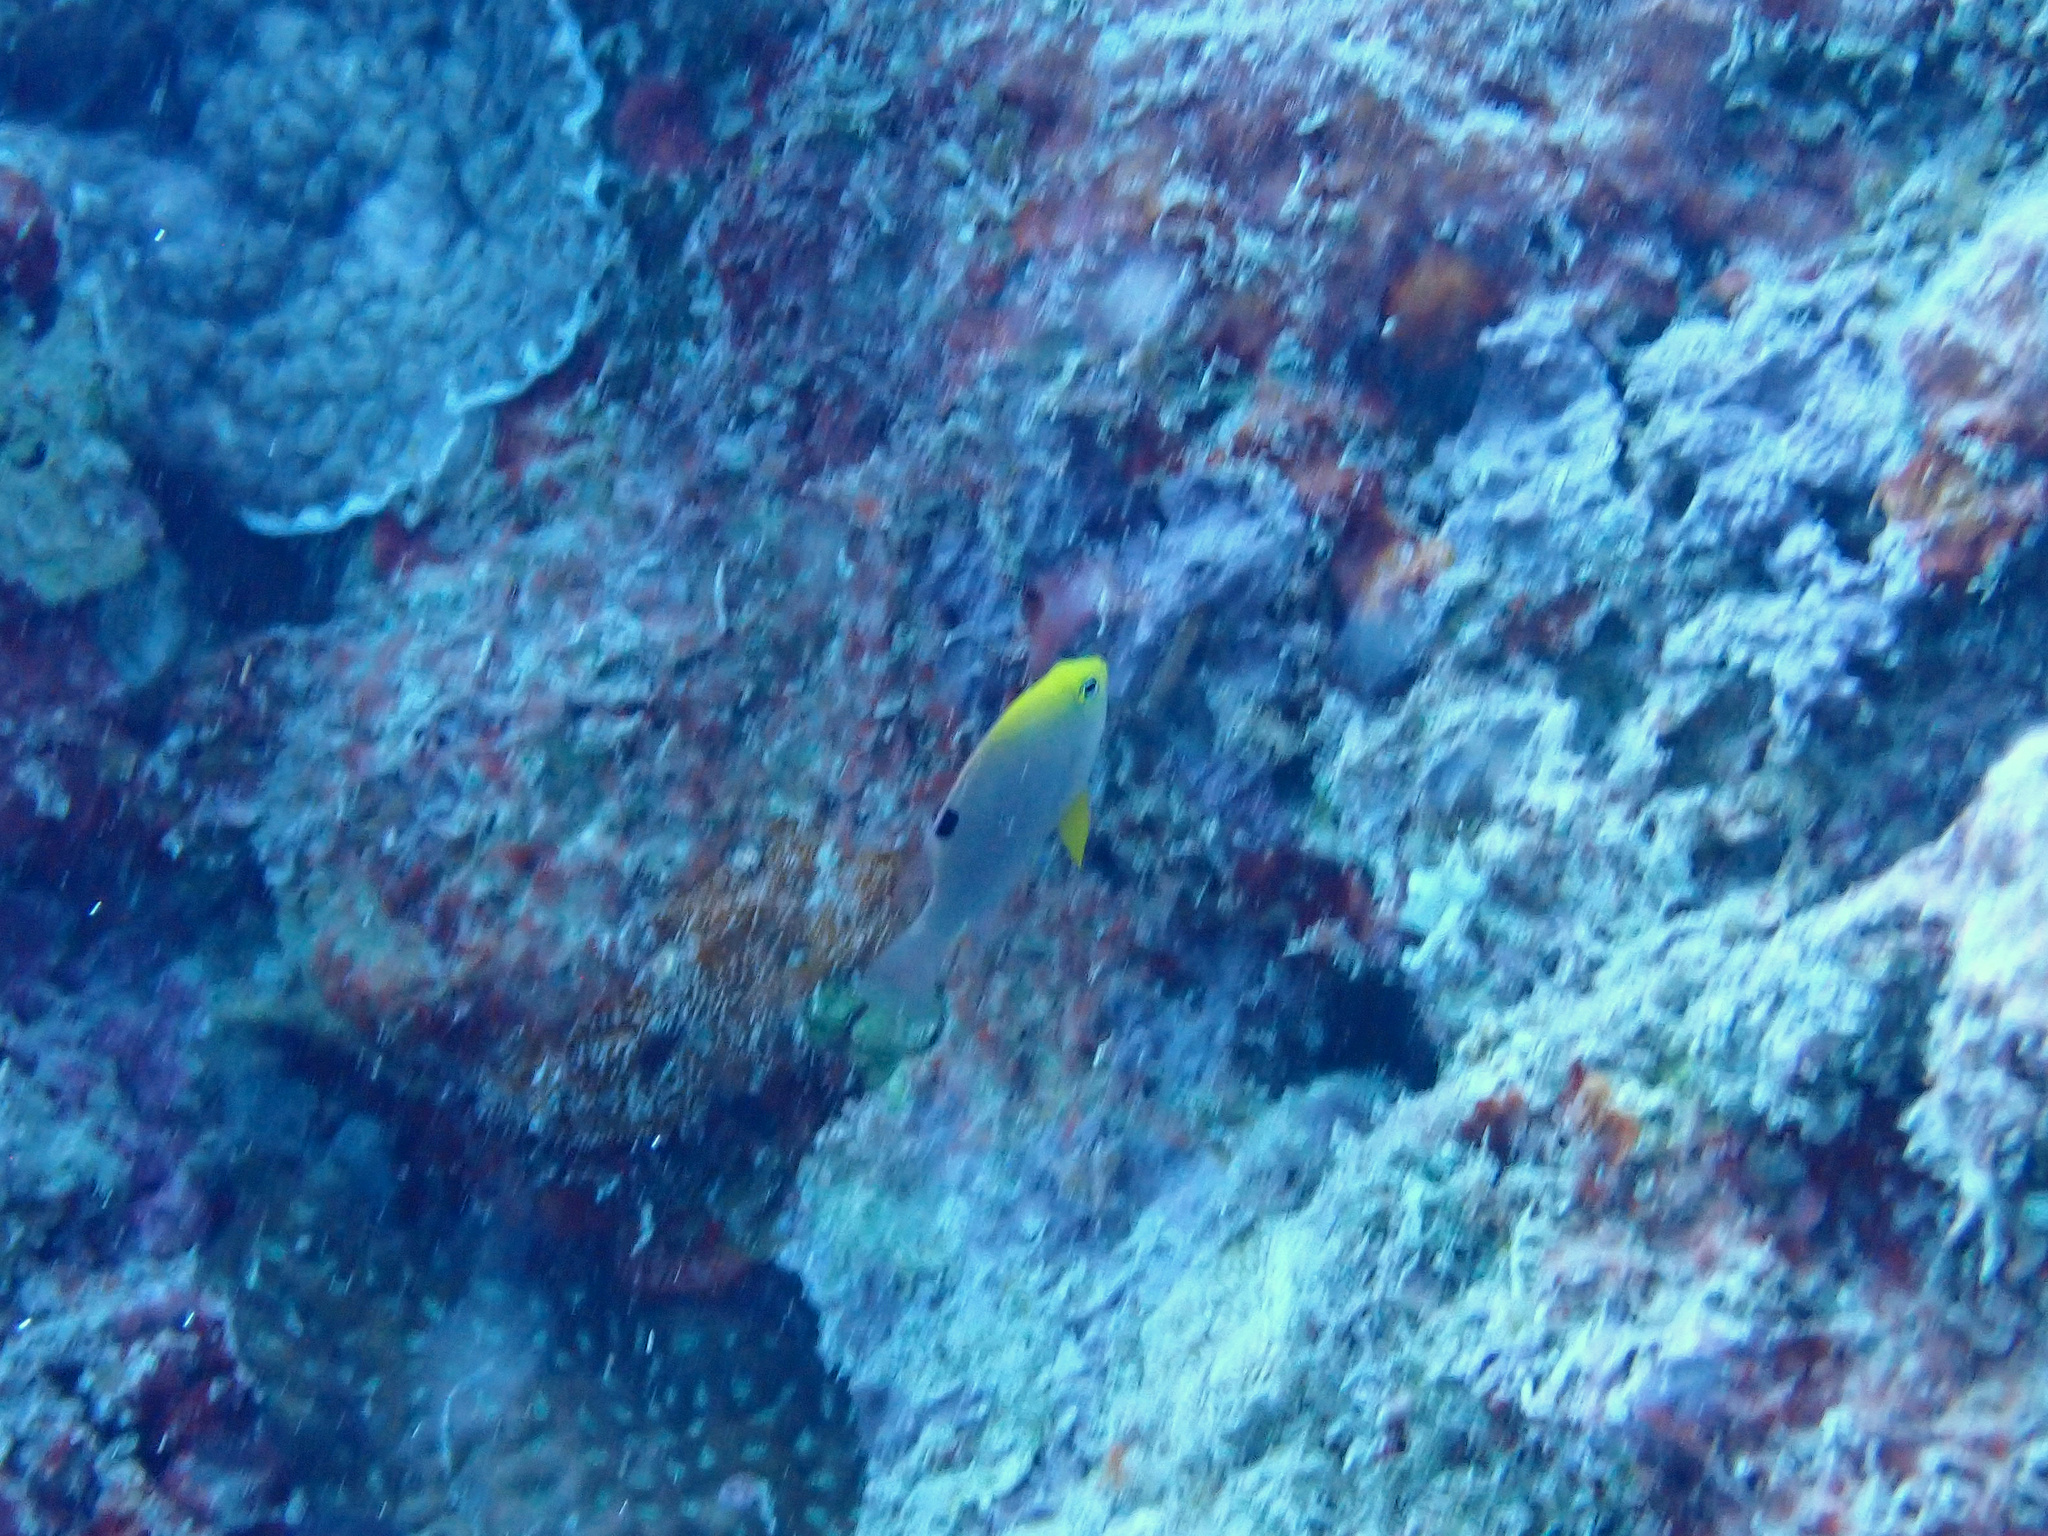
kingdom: Animalia
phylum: Chordata
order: Perciformes
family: Pomacentridae
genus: Chrysiptera
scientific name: Chrysiptera talboti
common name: Talbot's demoiselle
